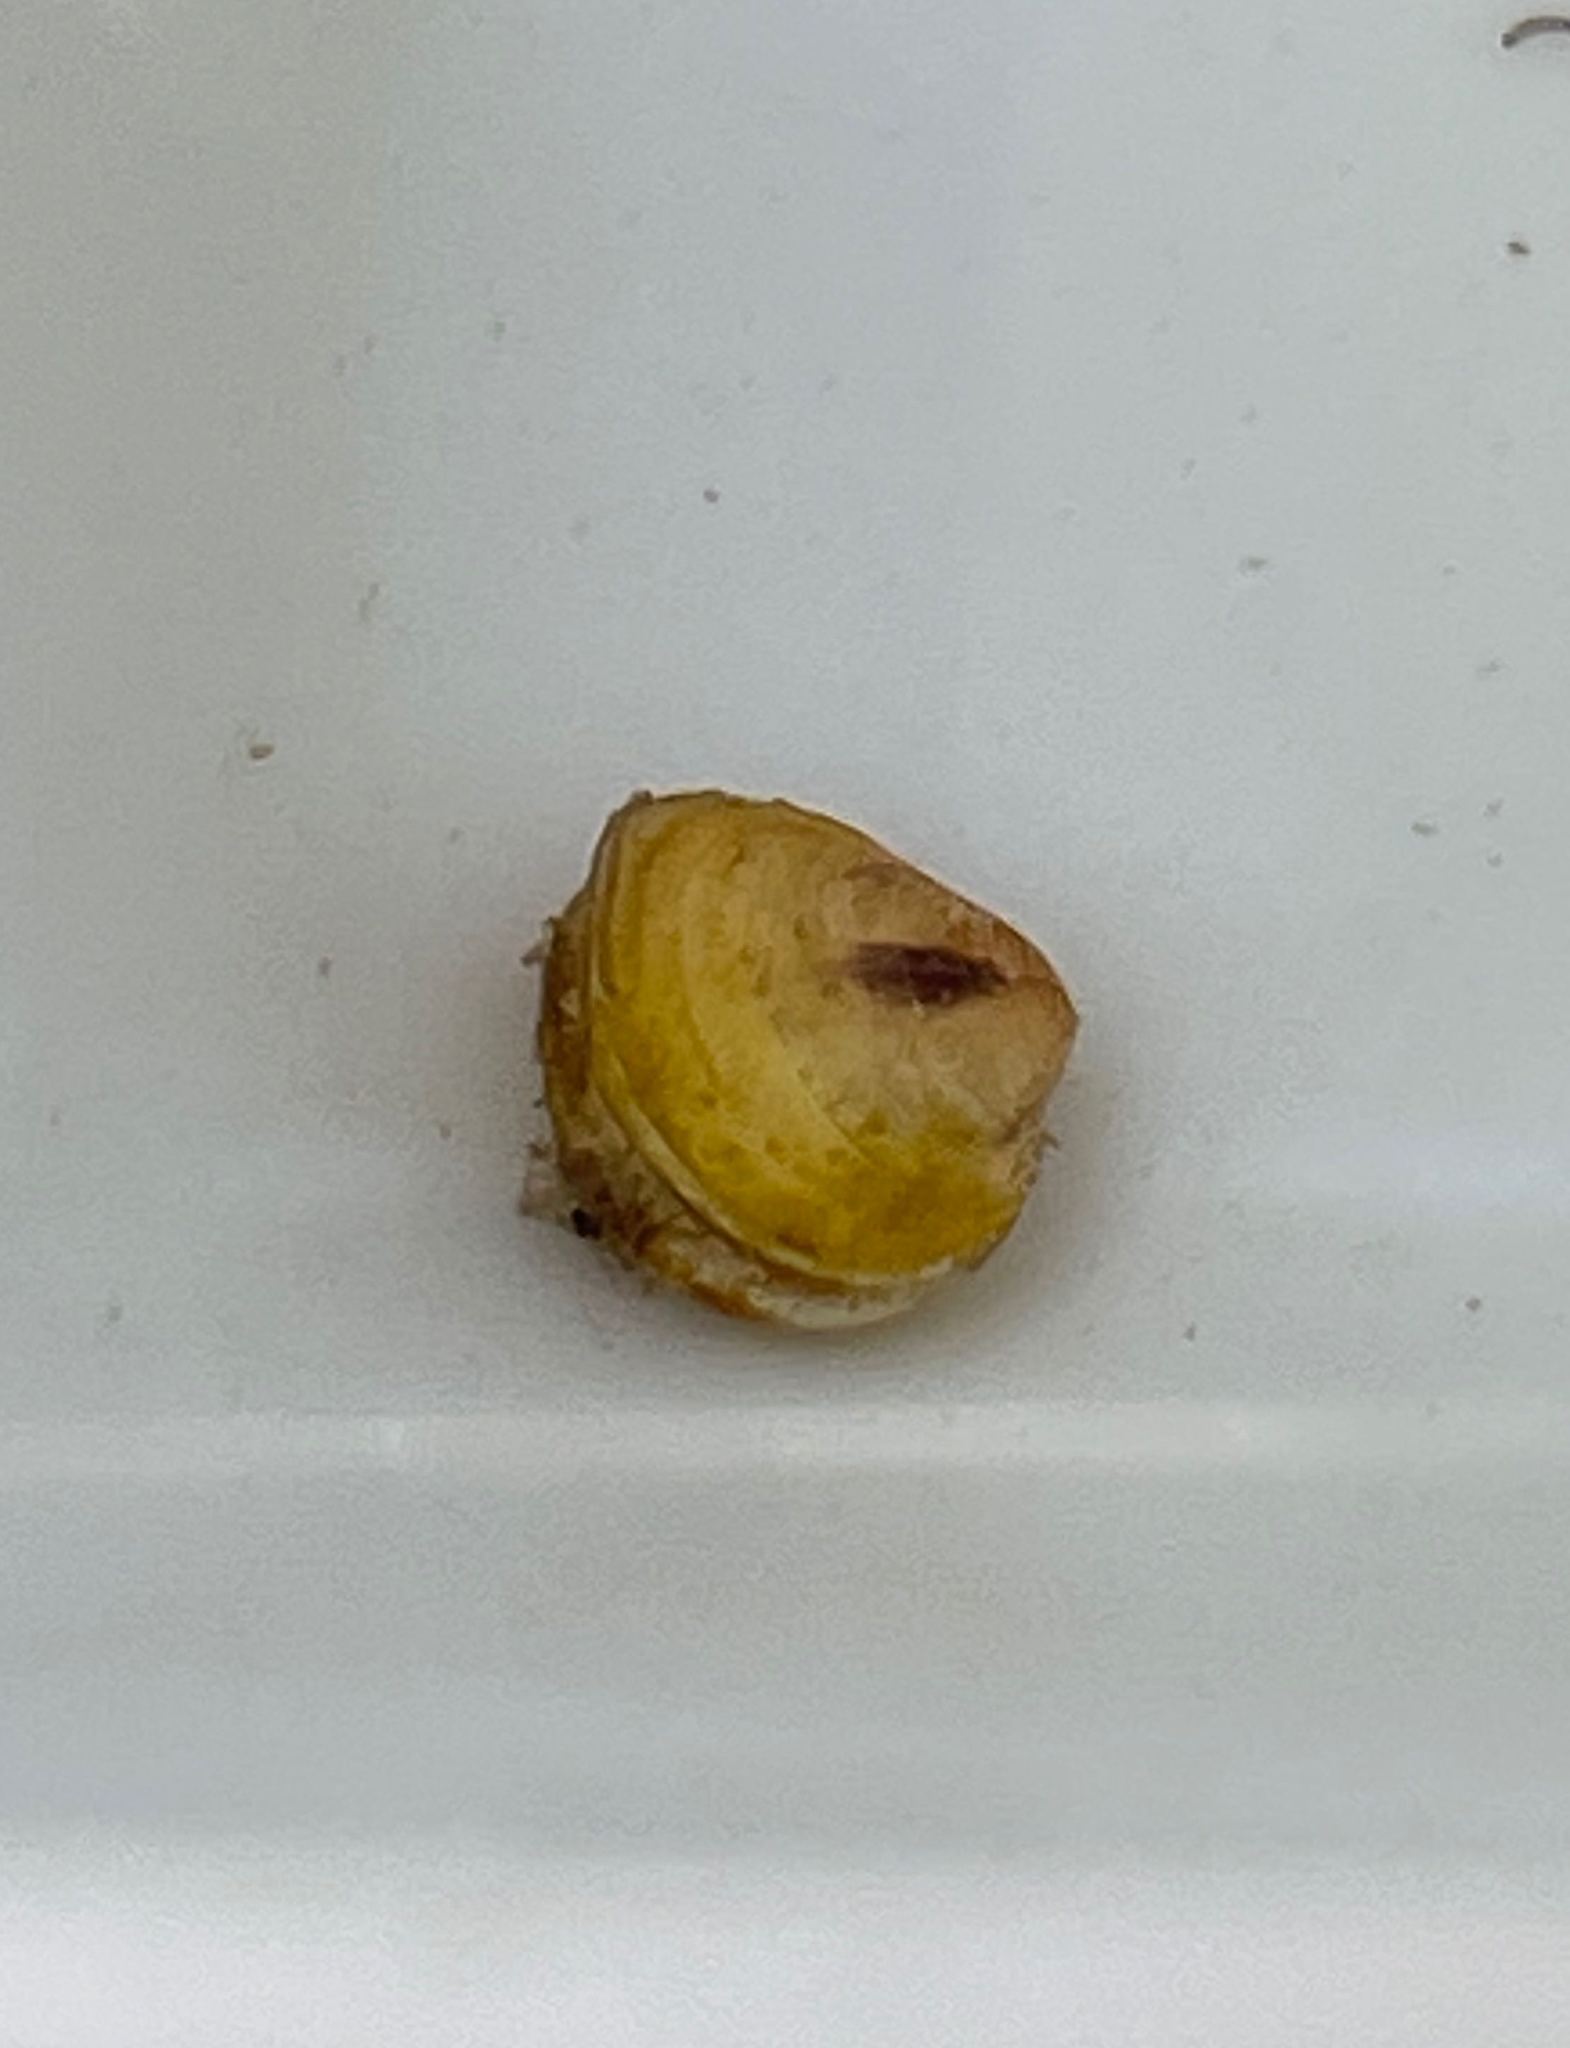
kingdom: Animalia
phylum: Mollusca
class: Bivalvia
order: Venerida
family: Cyrenidae
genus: Corbicula
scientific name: Corbicula fluminea
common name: Asian clam
